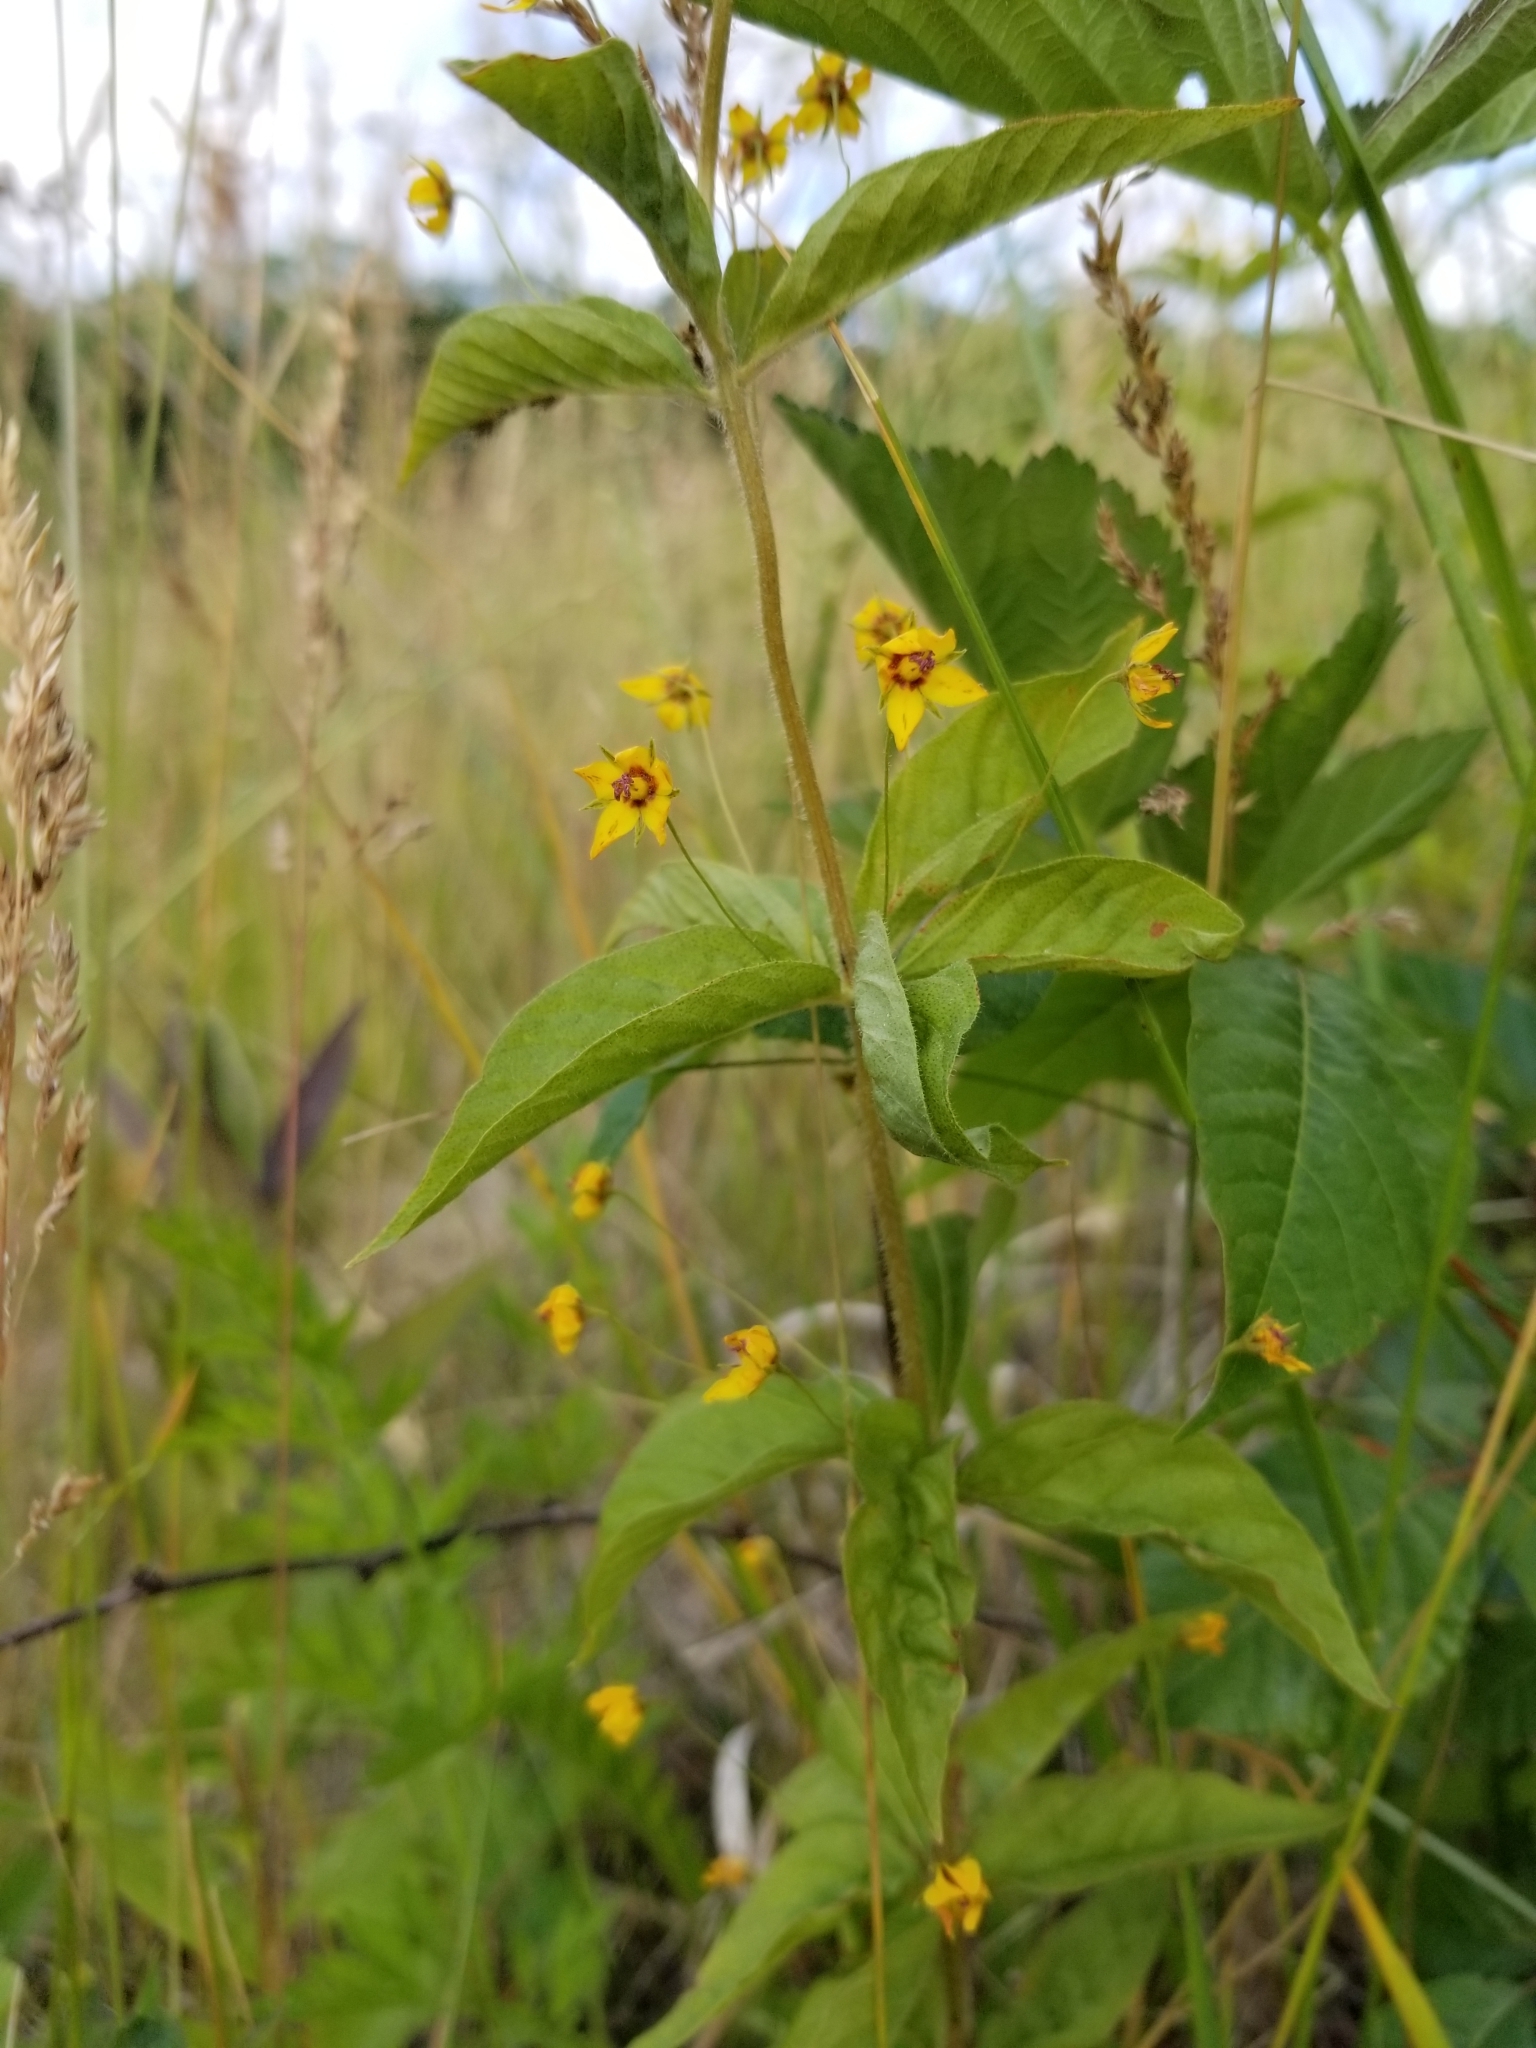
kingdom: Plantae
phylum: Tracheophyta
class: Magnoliopsida
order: Ericales
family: Primulaceae
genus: Lysimachia
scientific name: Lysimachia quadrifolia
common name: Whorled loosestrife
